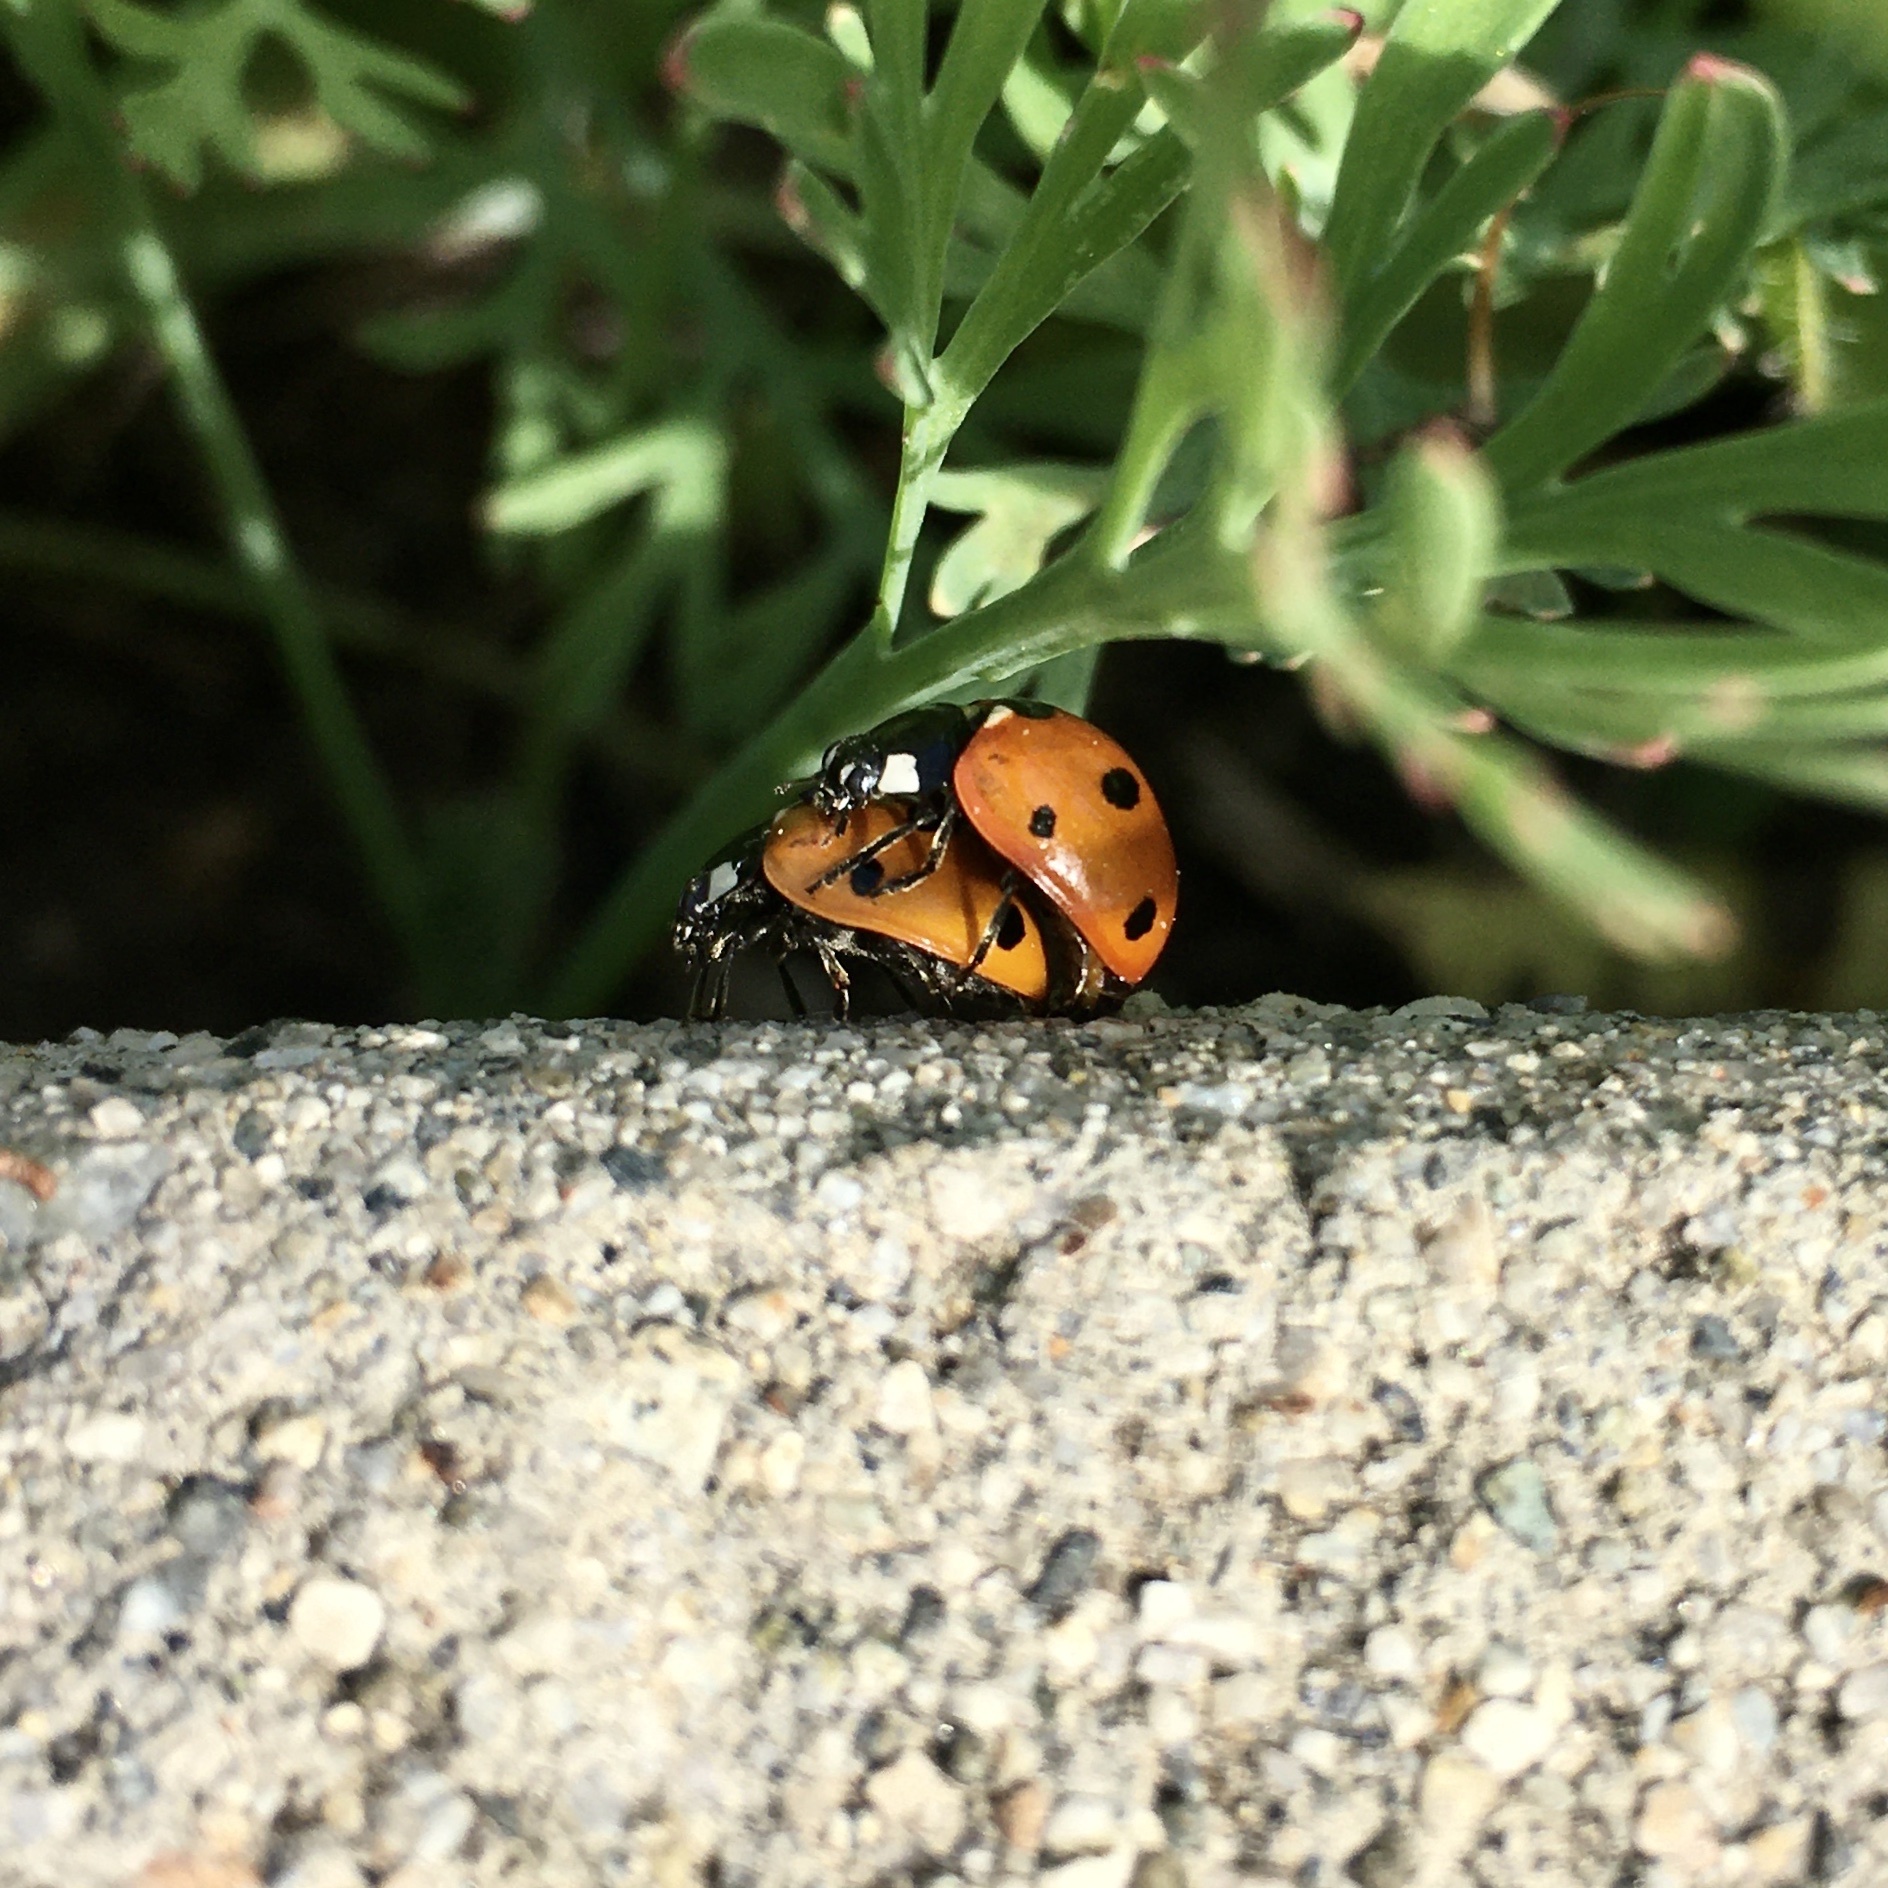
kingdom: Animalia
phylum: Arthropoda
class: Insecta
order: Coleoptera
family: Coccinellidae
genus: Coccinella
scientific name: Coccinella septempunctata
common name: Sevenspotted lady beetle
